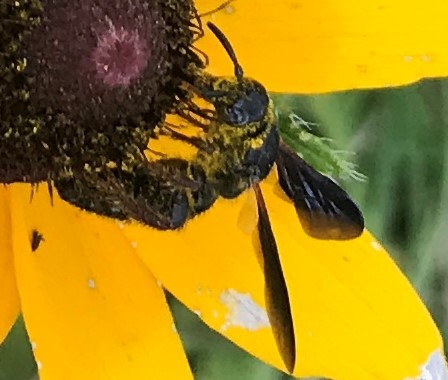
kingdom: Animalia
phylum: Arthropoda
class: Insecta
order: Hymenoptera
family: Scoliidae
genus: Scolia
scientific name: Scolia nobilitata
